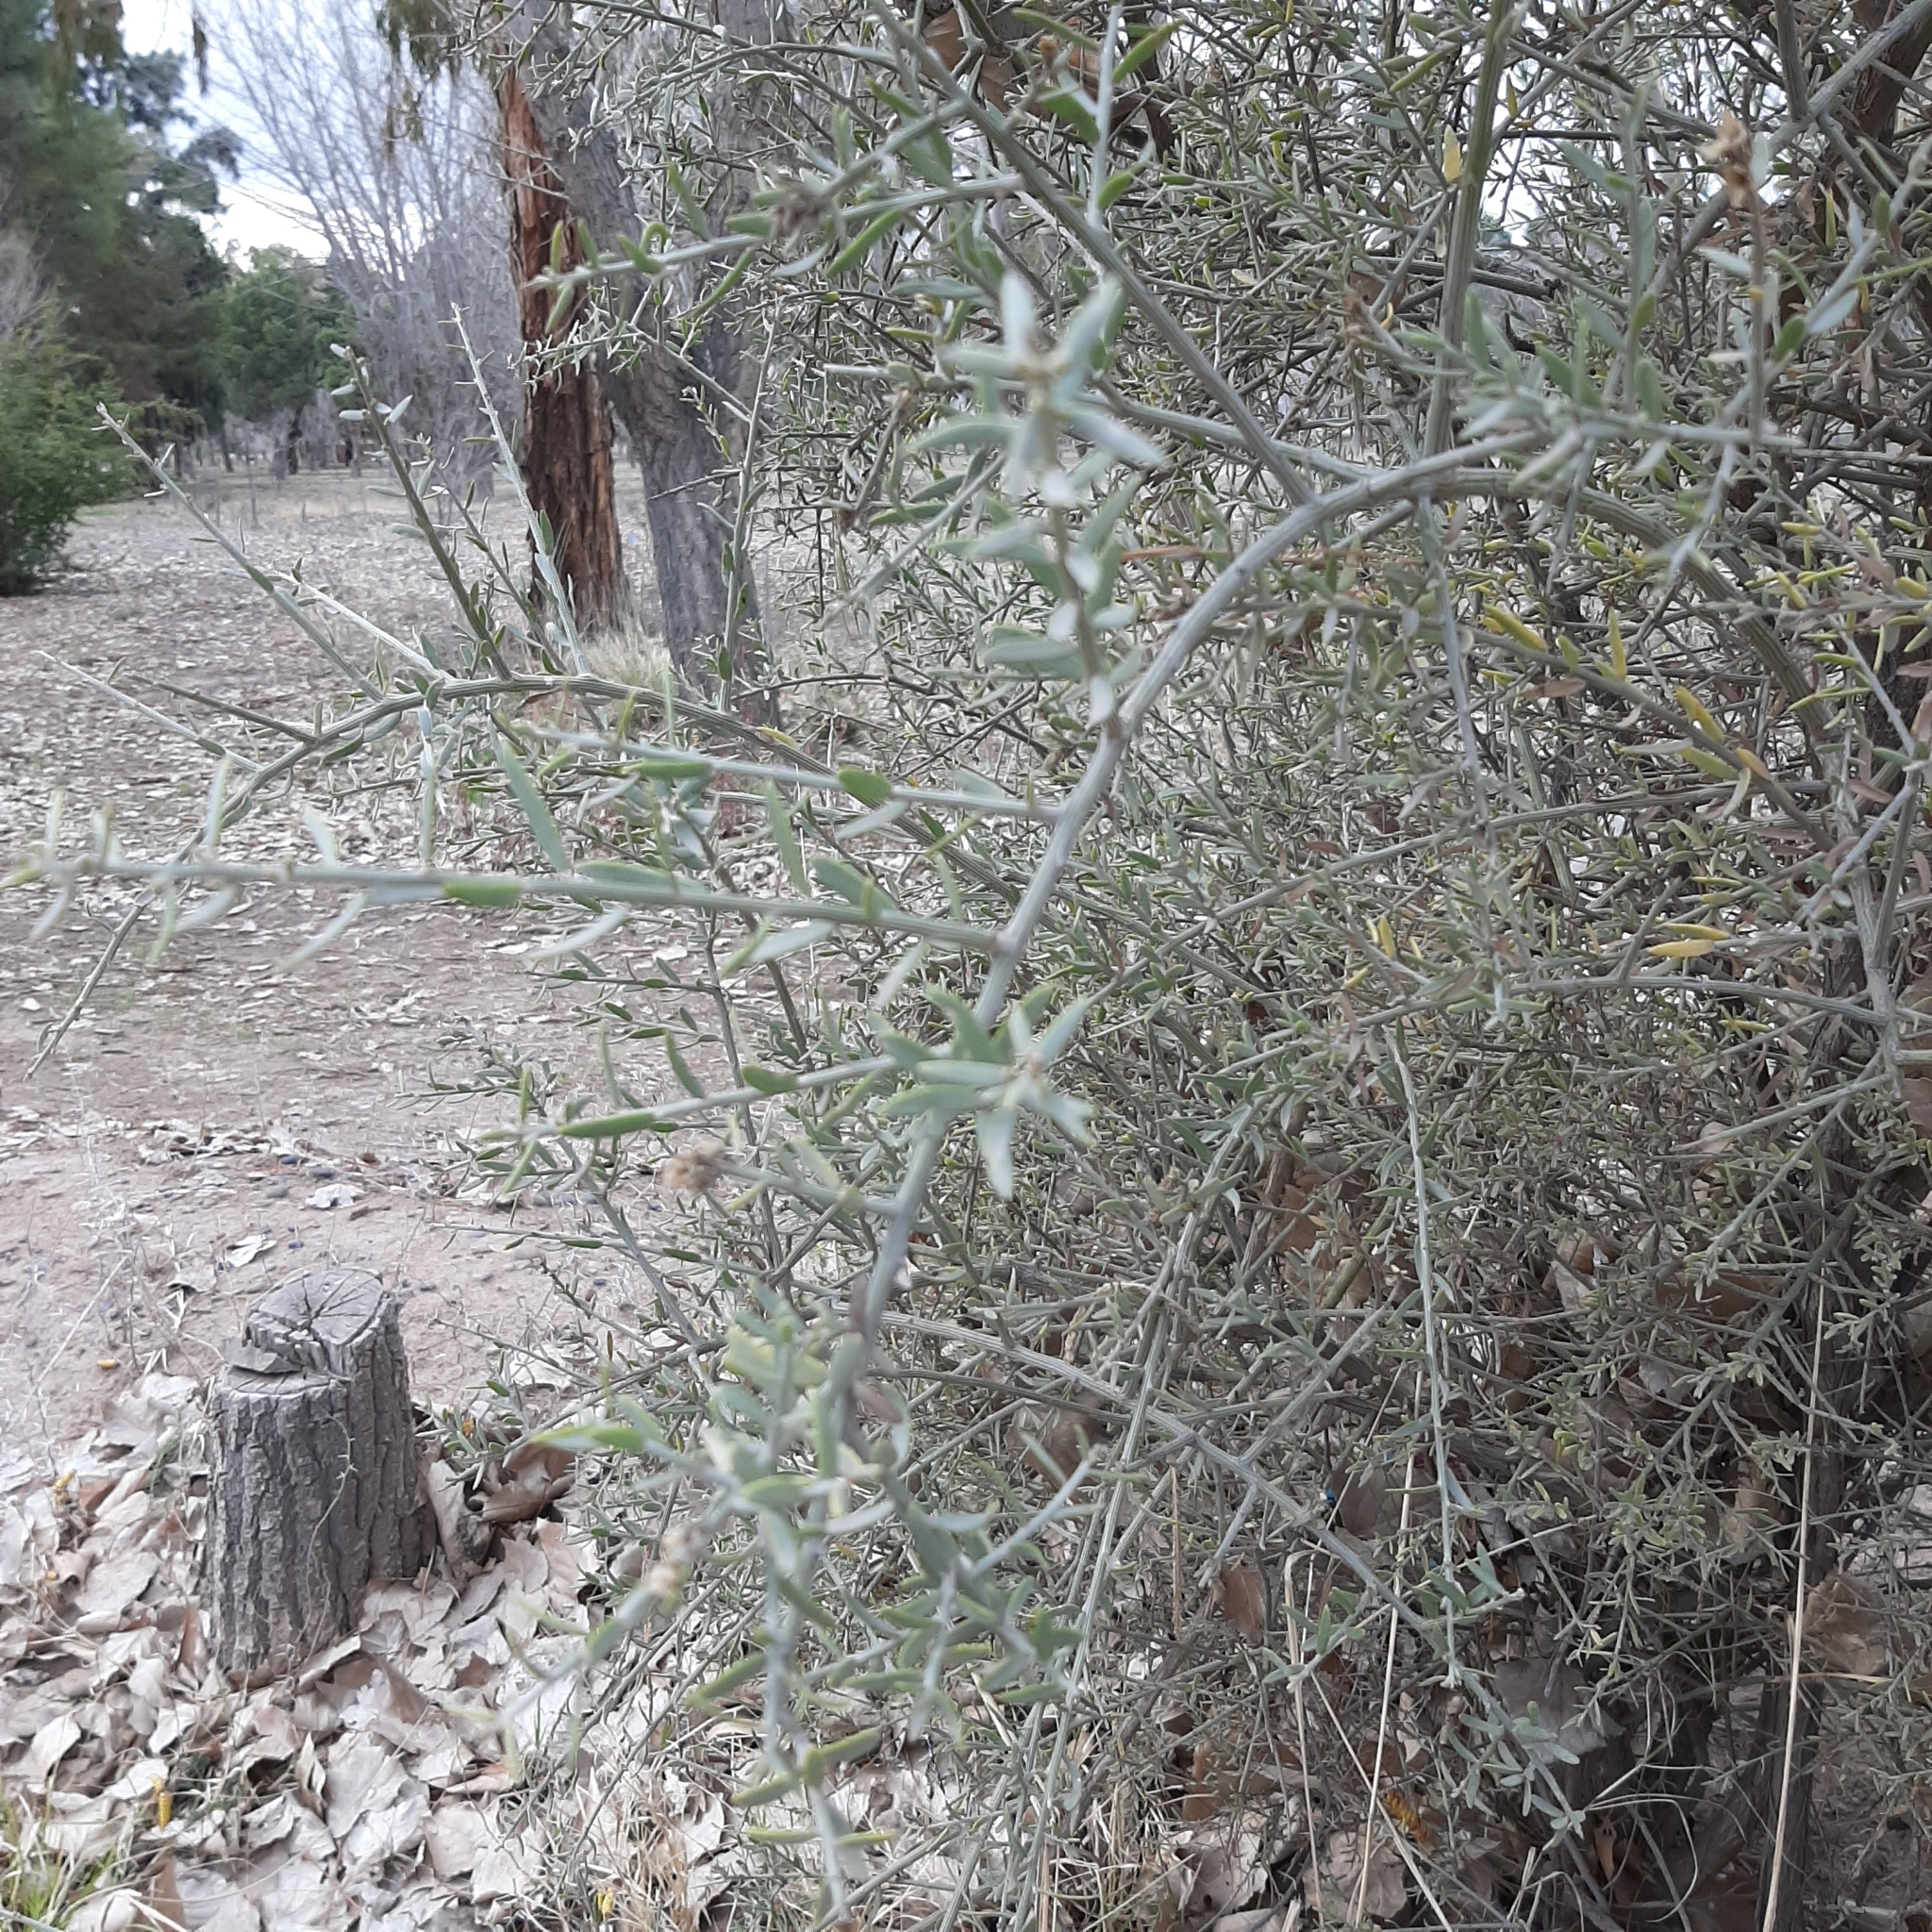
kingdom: Plantae
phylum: Tracheophyta
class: Magnoliopsida
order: Asterales
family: Asteraceae
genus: Cyclolepis
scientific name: Cyclolepis genistoides
